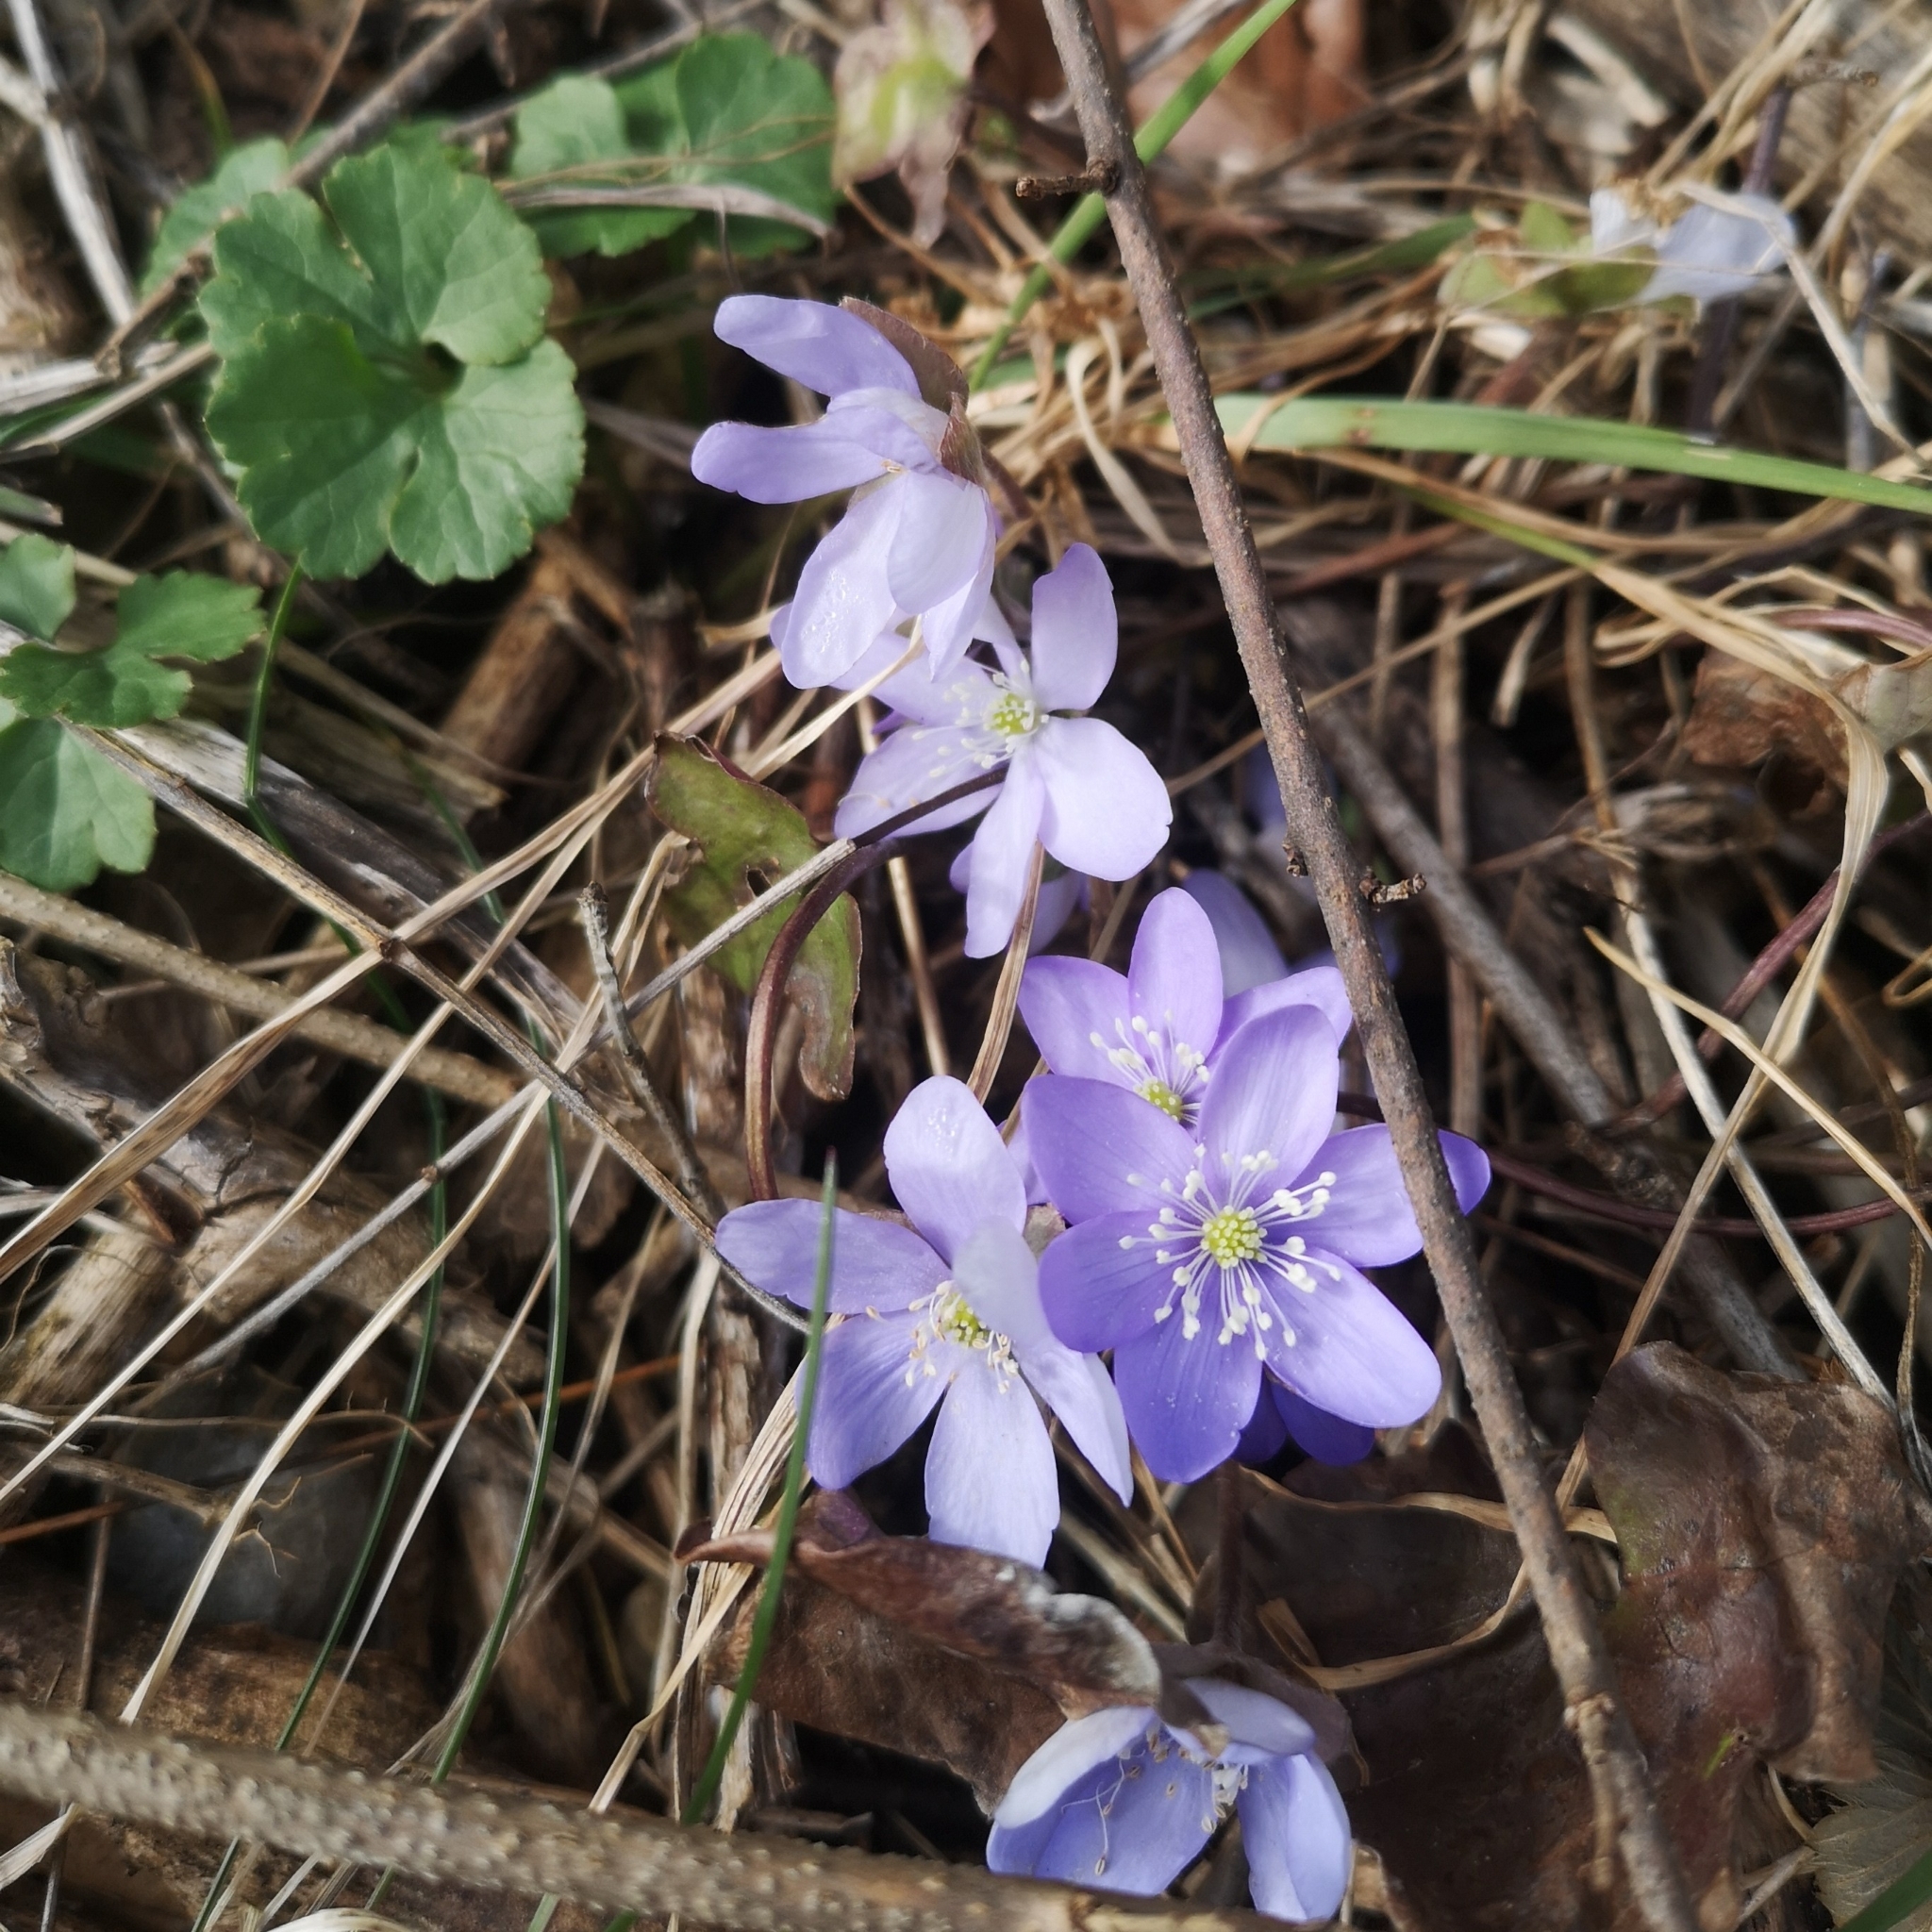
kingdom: Plantae
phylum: Tracheophyta
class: Magnoliopsida
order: Ranunculales
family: Ranunculaceae
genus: Hepatica
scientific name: Hepatica nobilis
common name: Liverleaf
